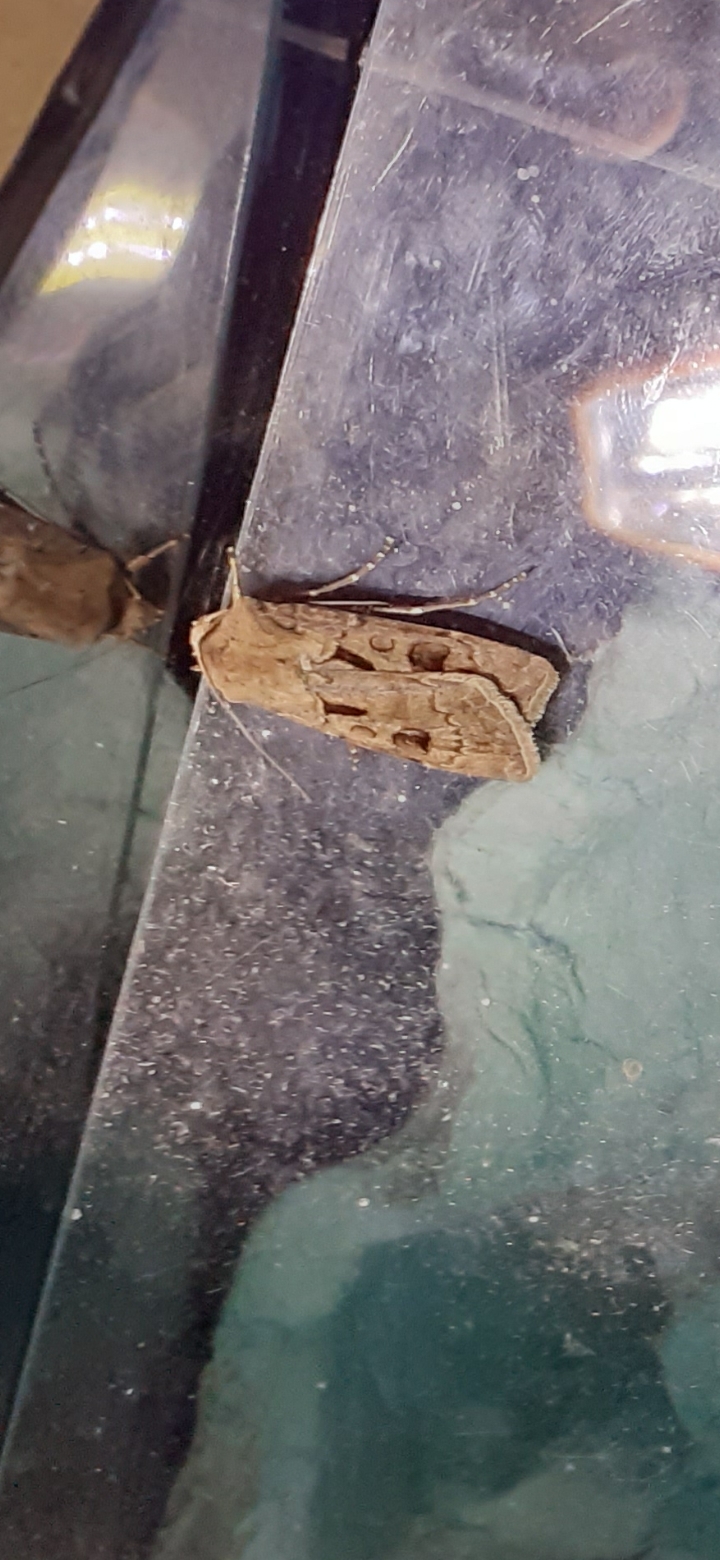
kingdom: Animalia
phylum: Arthropoda
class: Insecta
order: Lepidoptera
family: Noctuidae
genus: Agrotis
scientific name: Agrotis exclamationis
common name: Heart and dart
